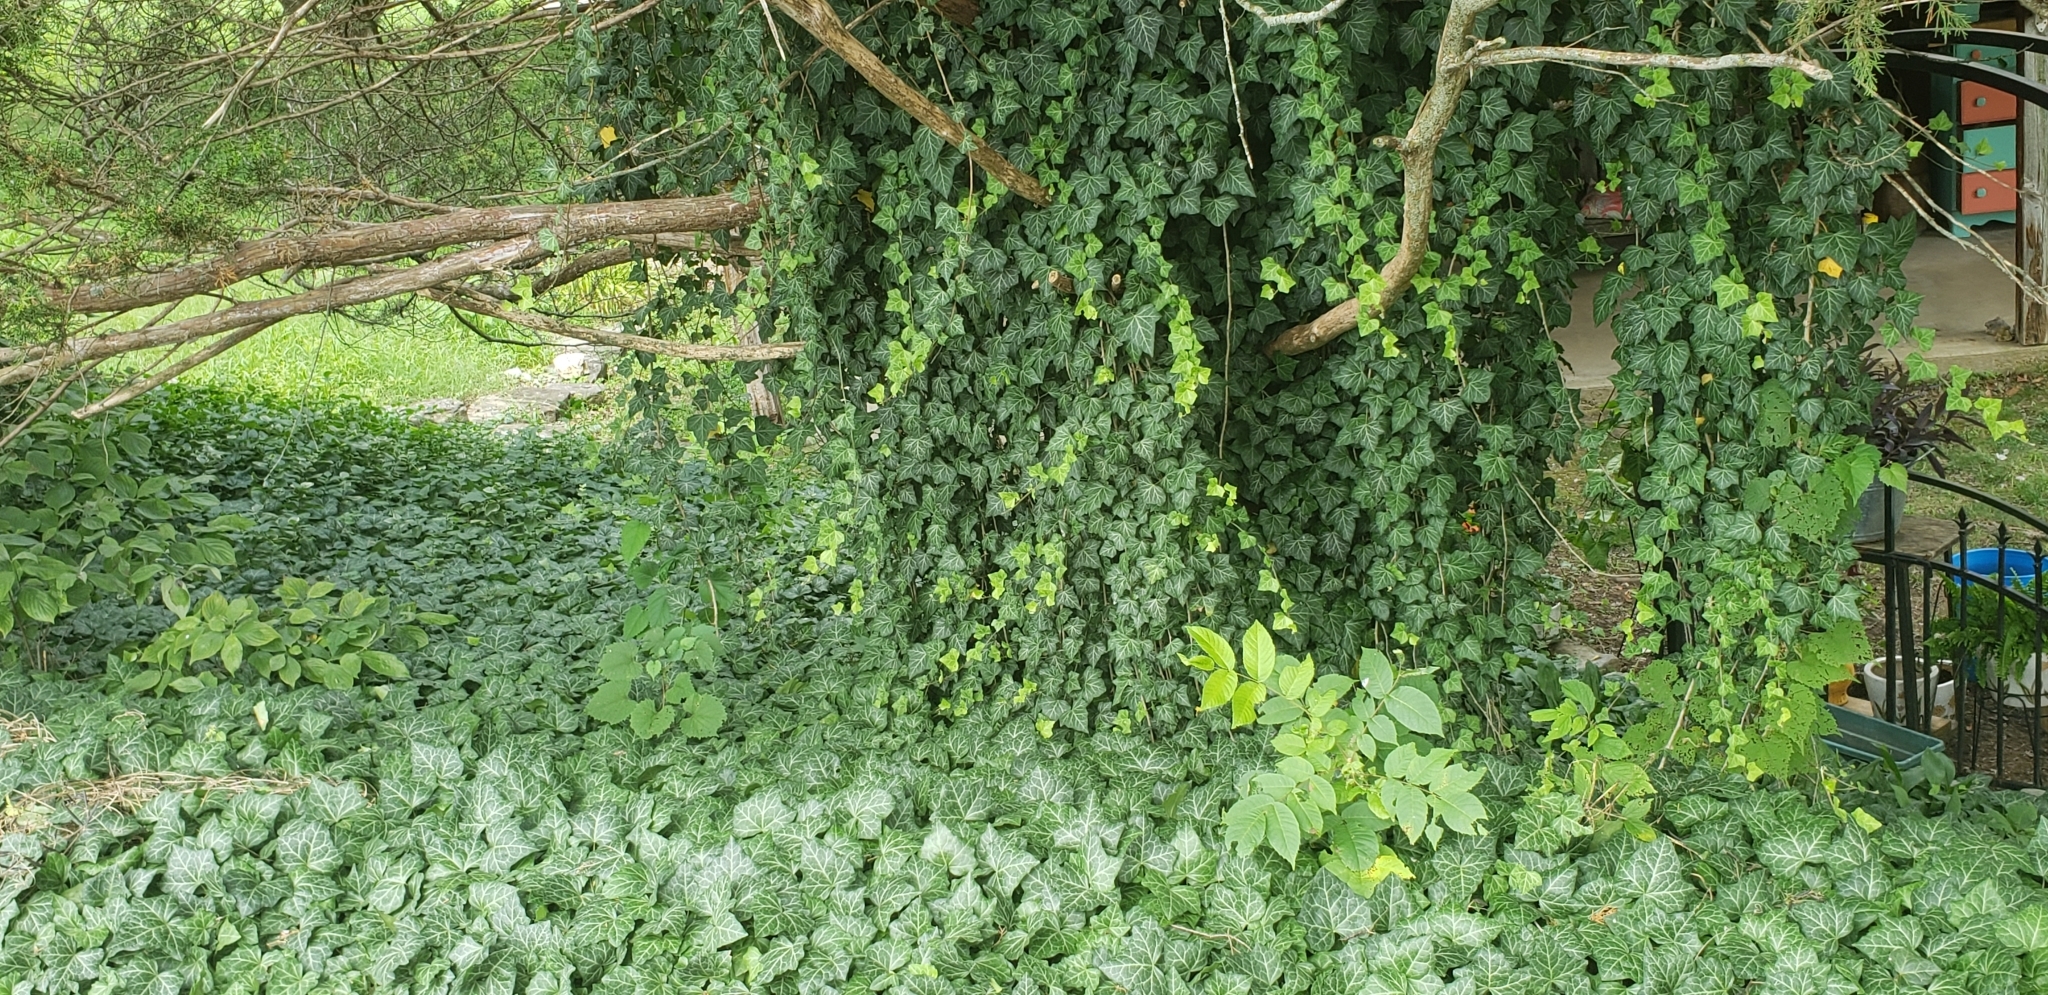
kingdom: Plantae
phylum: Tracheophyta
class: Magnoliopsida
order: Apiales
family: Araliaceae
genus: Hedera
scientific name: Hedera helix
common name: Ivy
